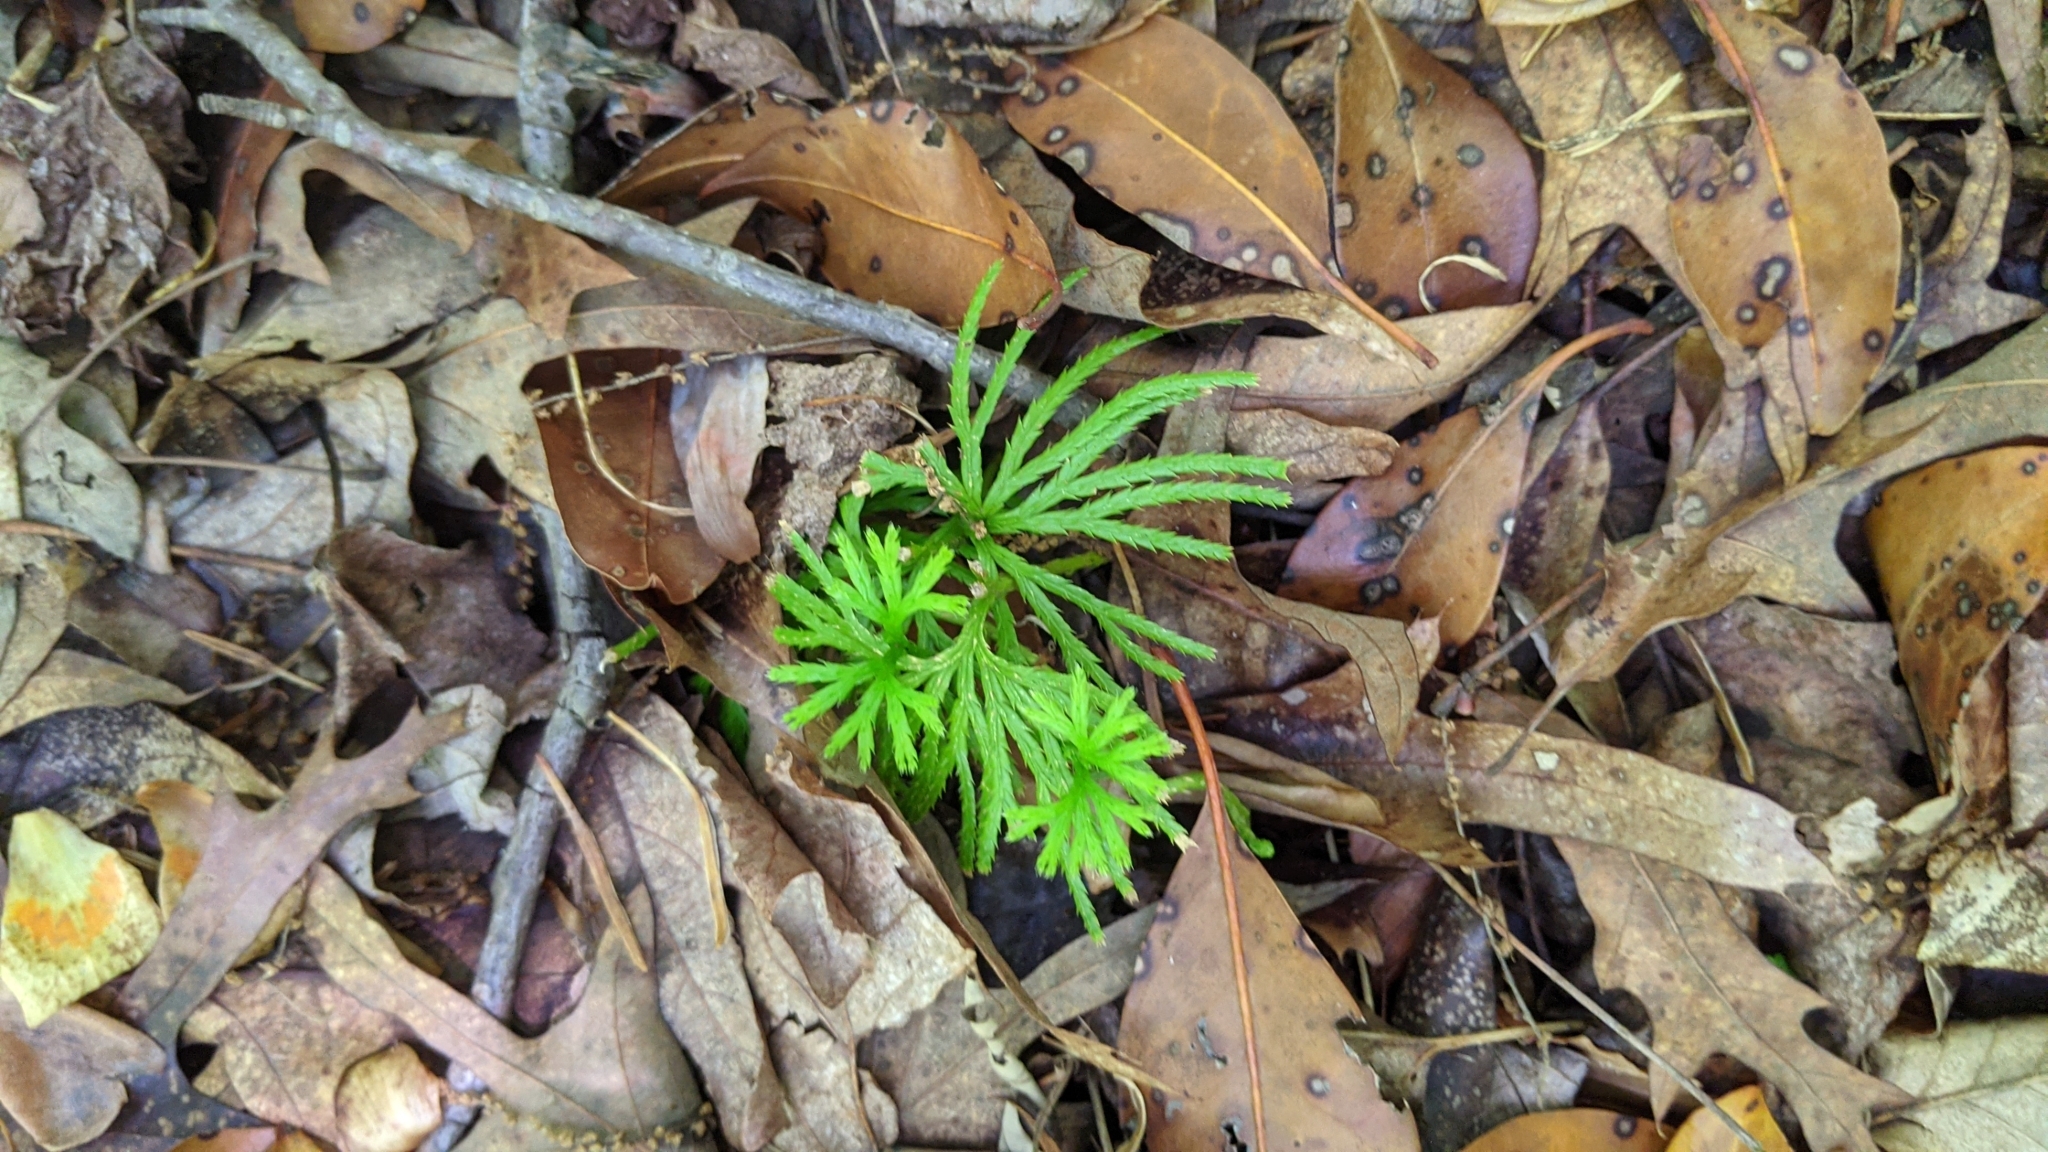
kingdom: Plantae
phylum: Tracheophyta
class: Lycopodiopsida
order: Lycopodiales
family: Lycopodiaceae
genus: Diphasiastrum
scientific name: Diphasiastrum digitatum
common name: Southern running-pine
